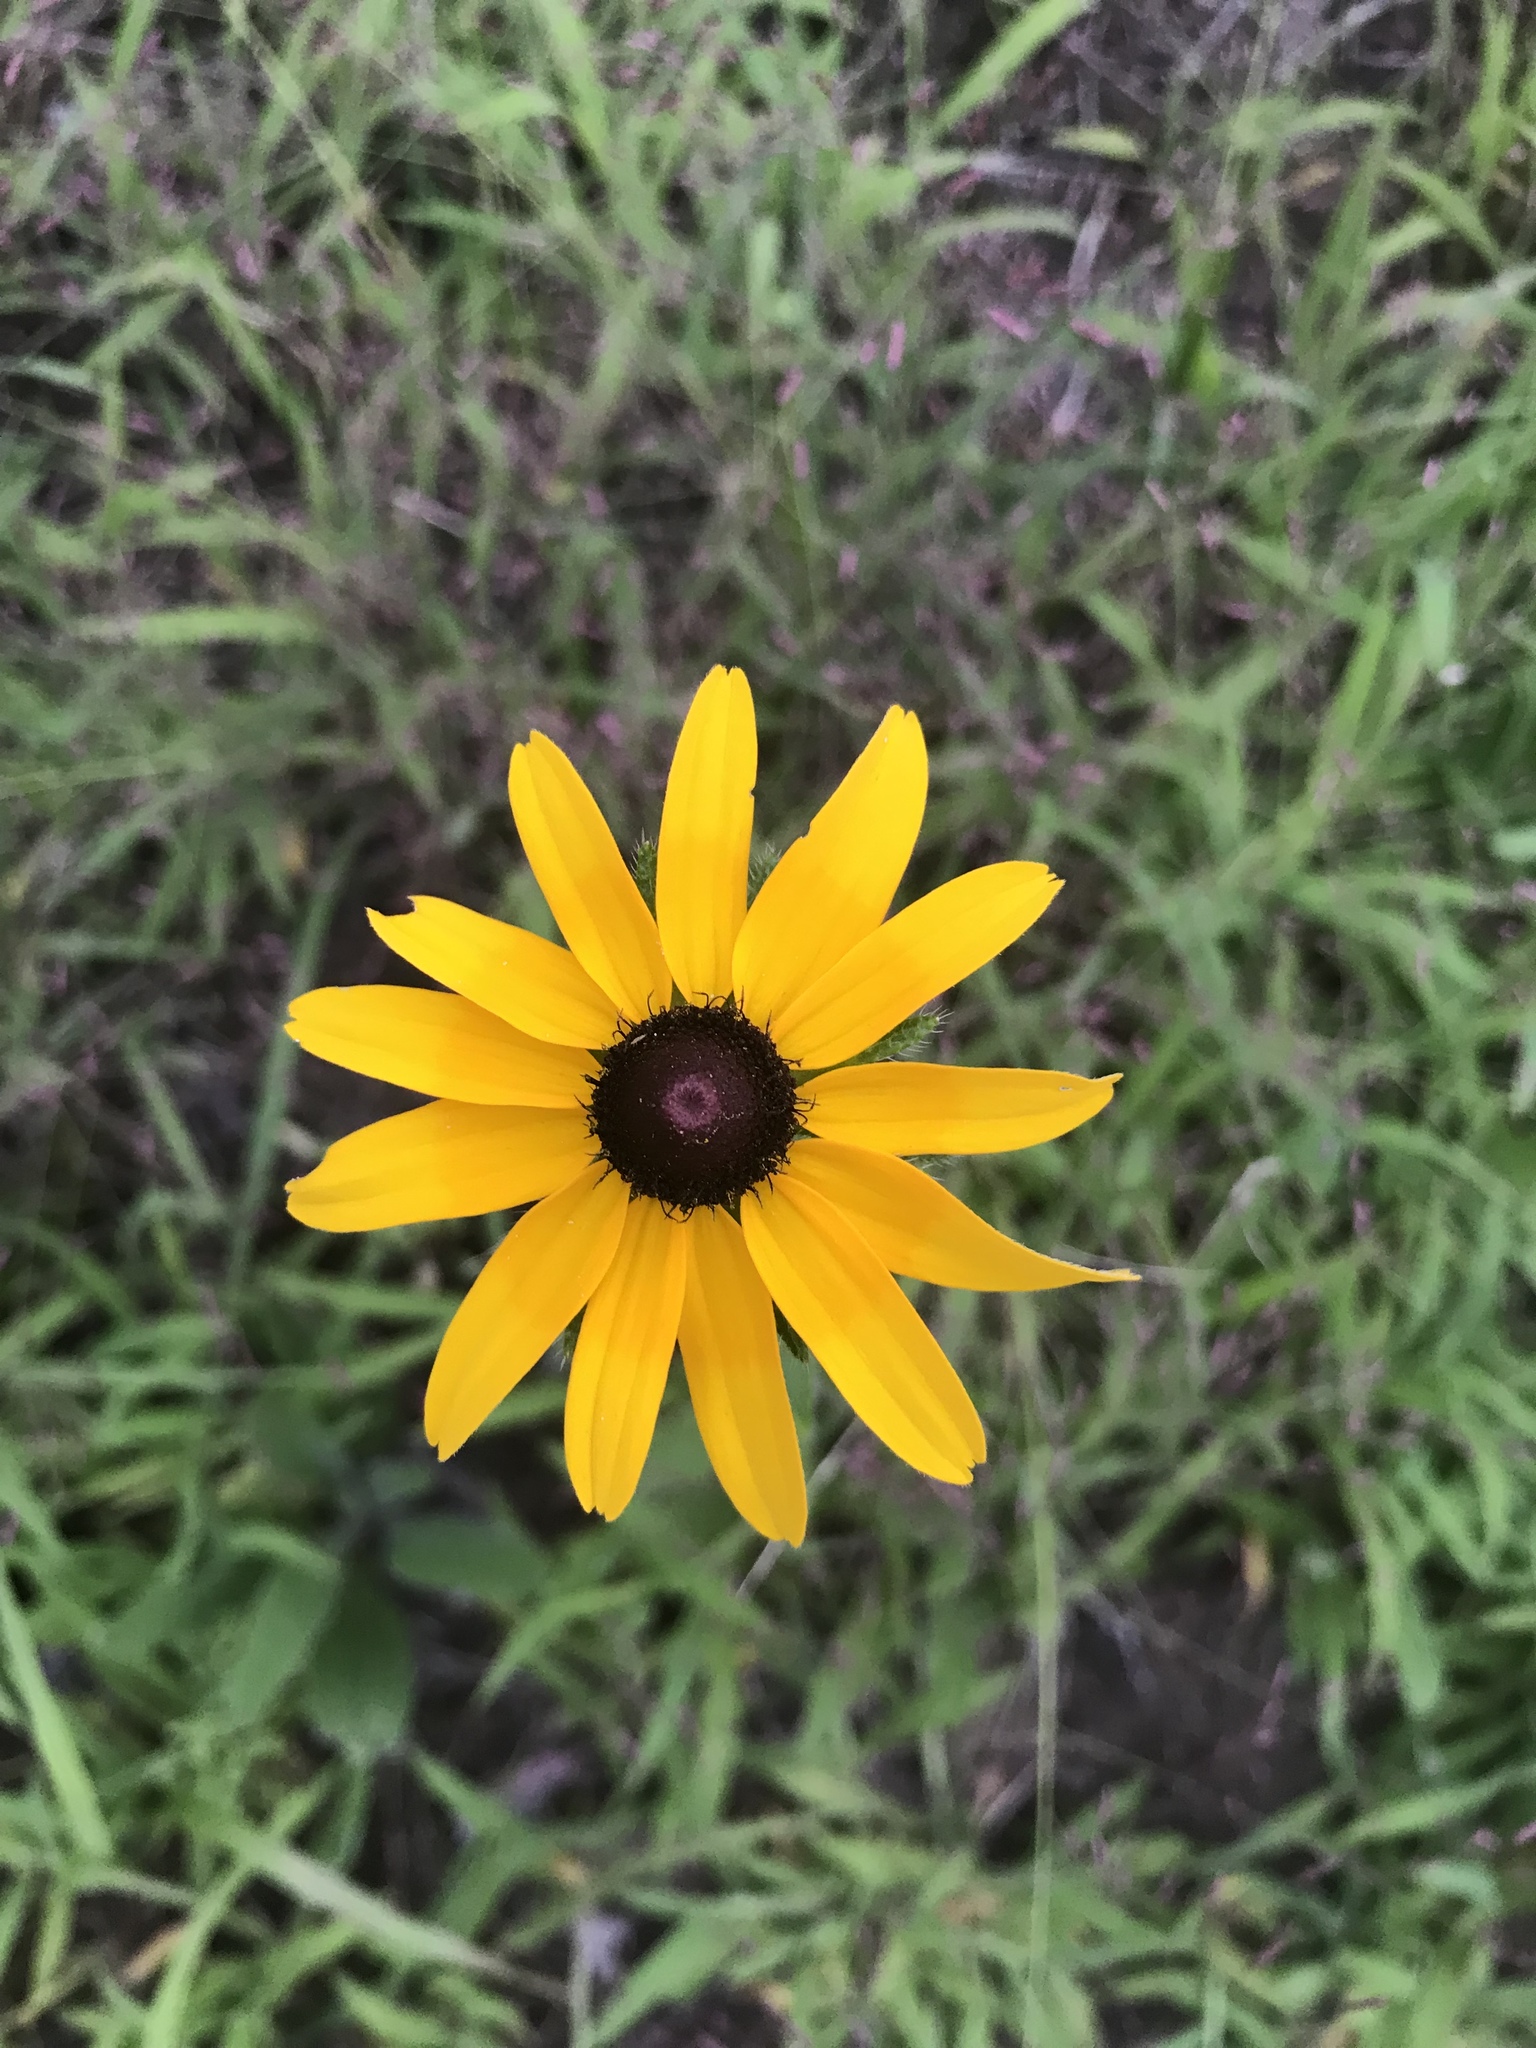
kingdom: Plantae
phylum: Tracheophyta
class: Magnoliopsida
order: Asterales
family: Asteraceae
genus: Rudbeckia
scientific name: Rudbeckia hirta
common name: Black-eyed-susan
